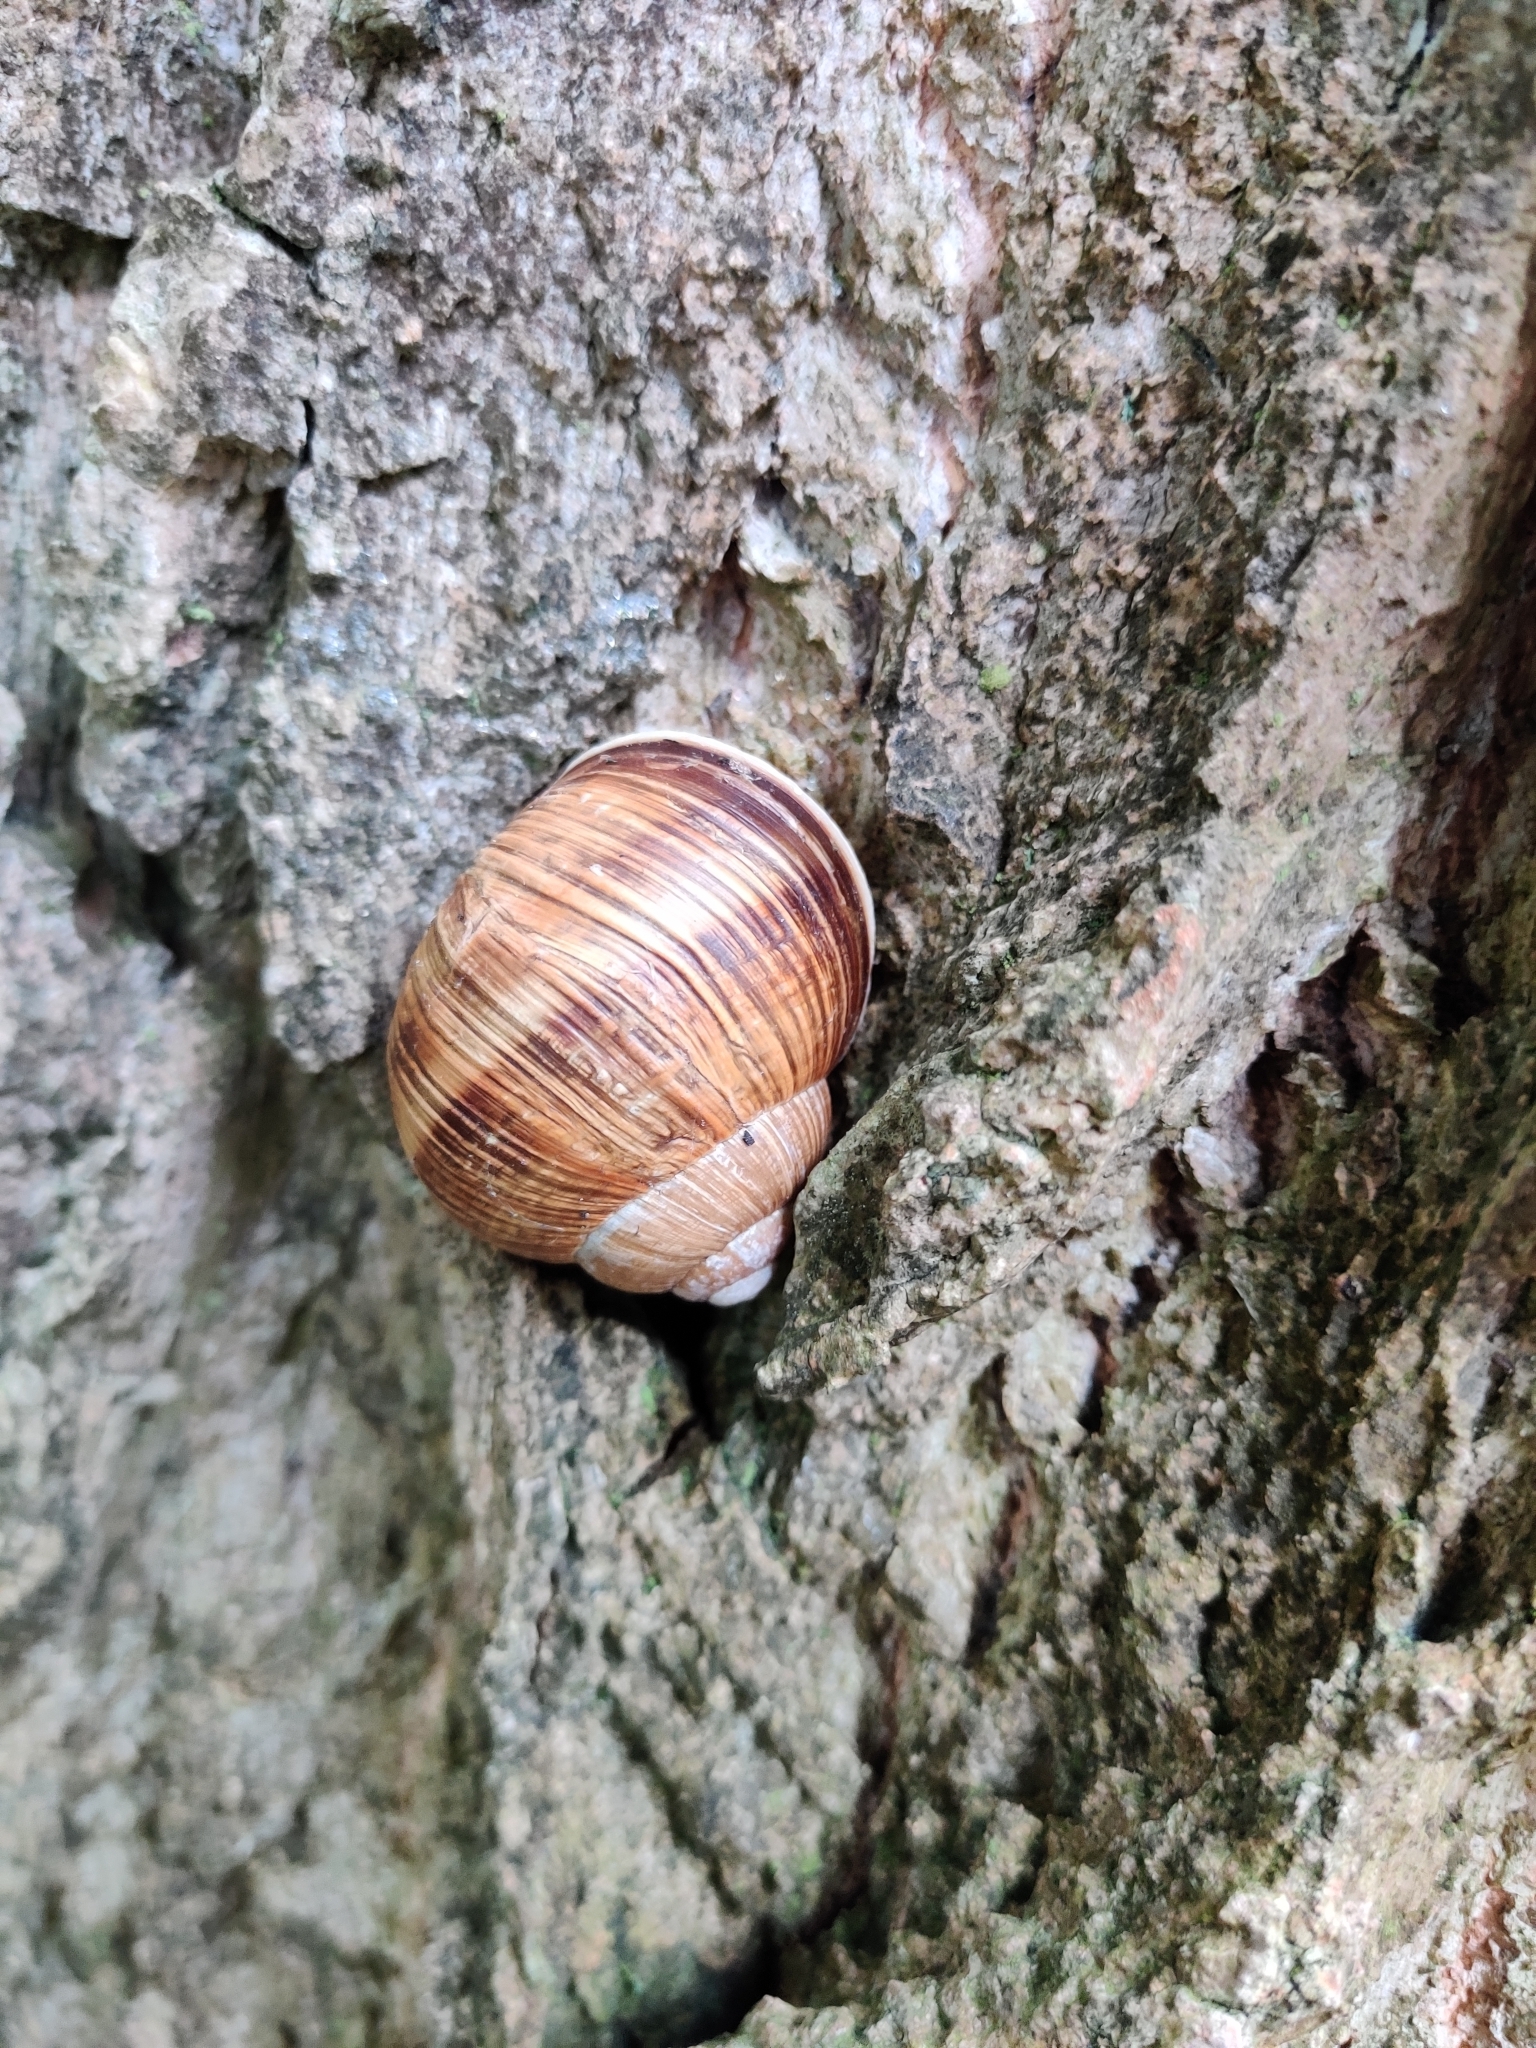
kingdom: Animalia
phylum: Mollusca
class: Gastropoda
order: Stylommatophora
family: Helicidae
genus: Helix
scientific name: Helix pomatia
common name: Roman snail
